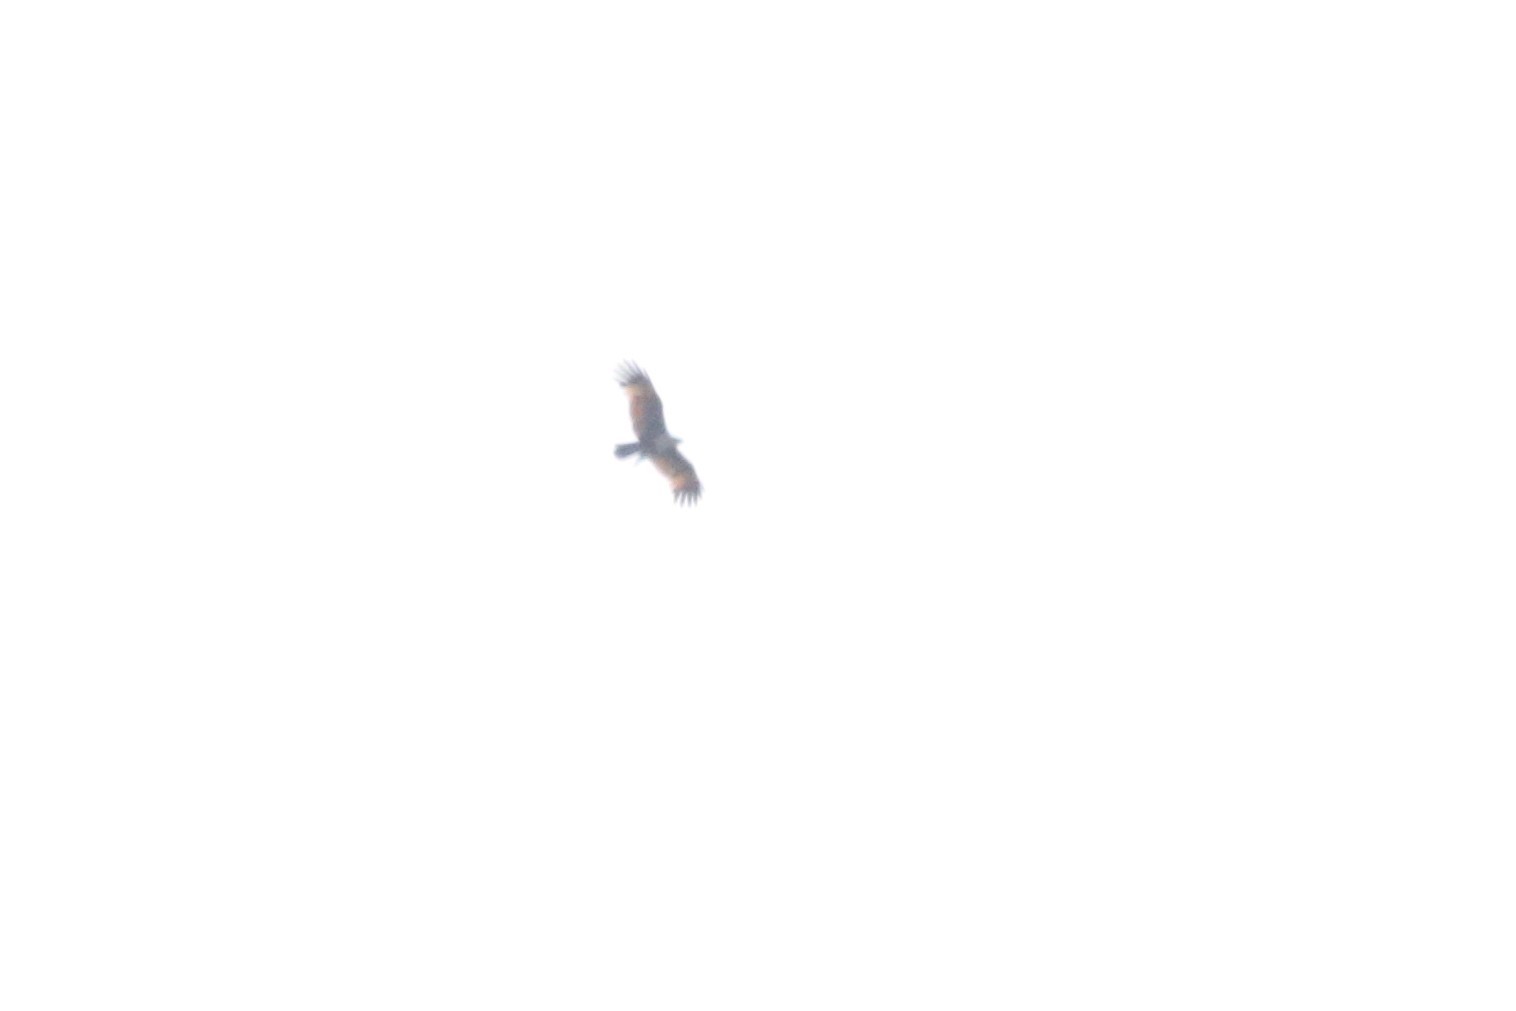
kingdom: Animalia
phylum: Chordata
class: Aves
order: Accipitriformes
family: Accipitridae
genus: Haliastur
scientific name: Haliastur indus
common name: Brahminy kite
